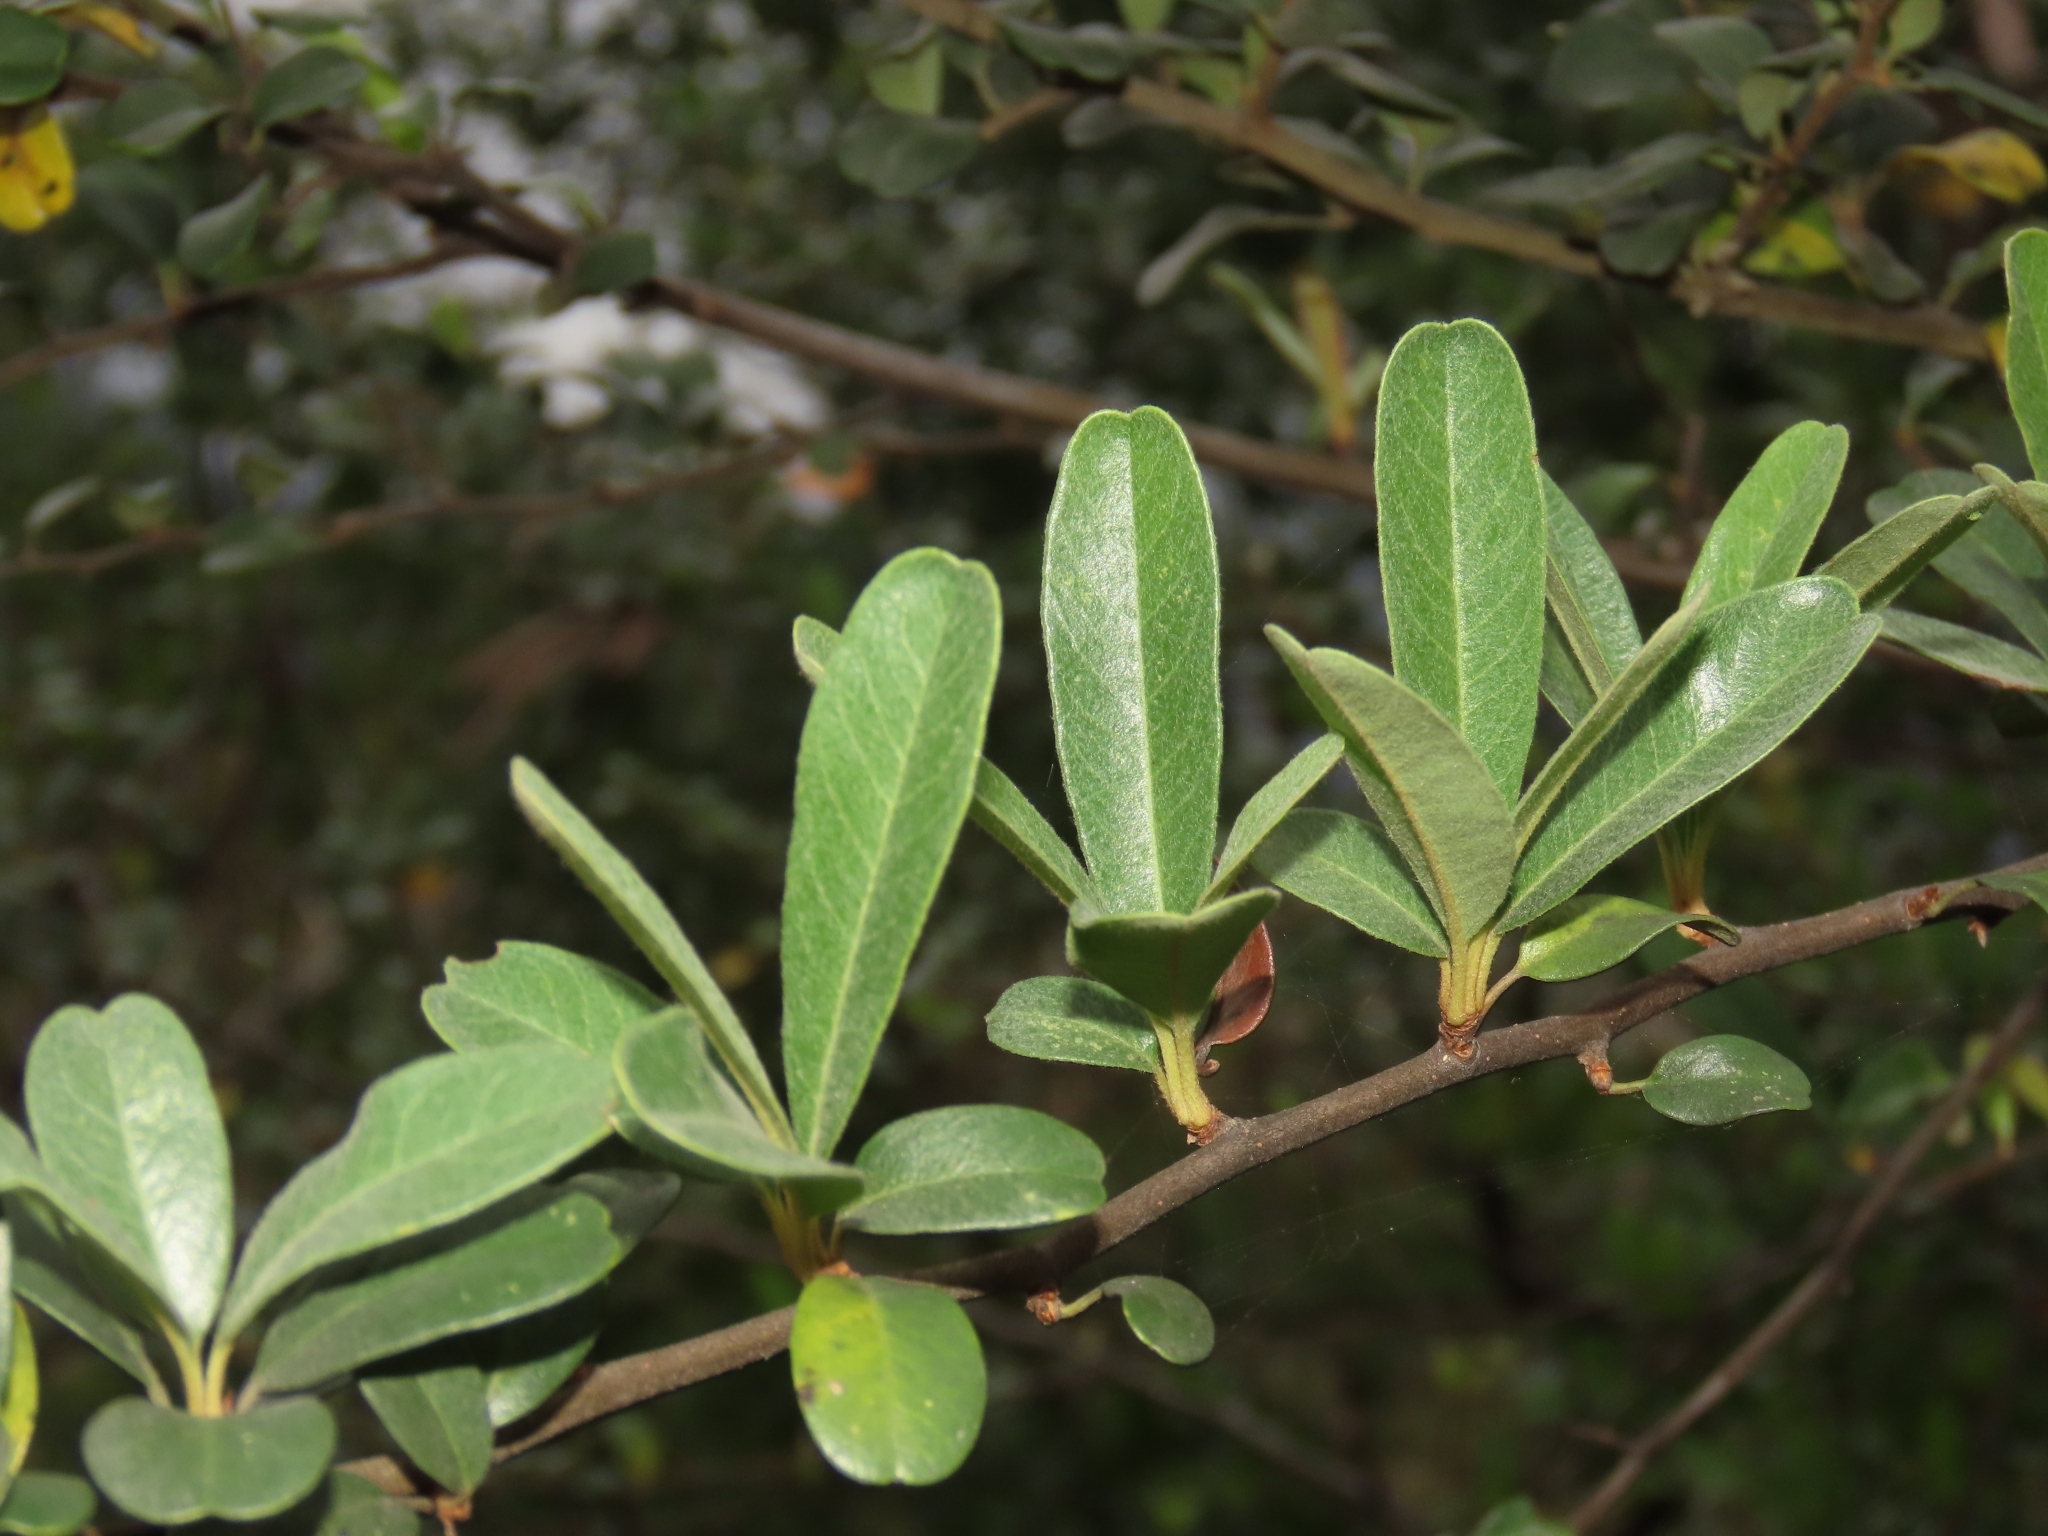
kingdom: Plantae
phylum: Tracheophyta
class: Magnoliopsida
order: Rosales
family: Rosaceae
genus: Pyracantha
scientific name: Pyracantha koidzumii
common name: Formosa firethorn
